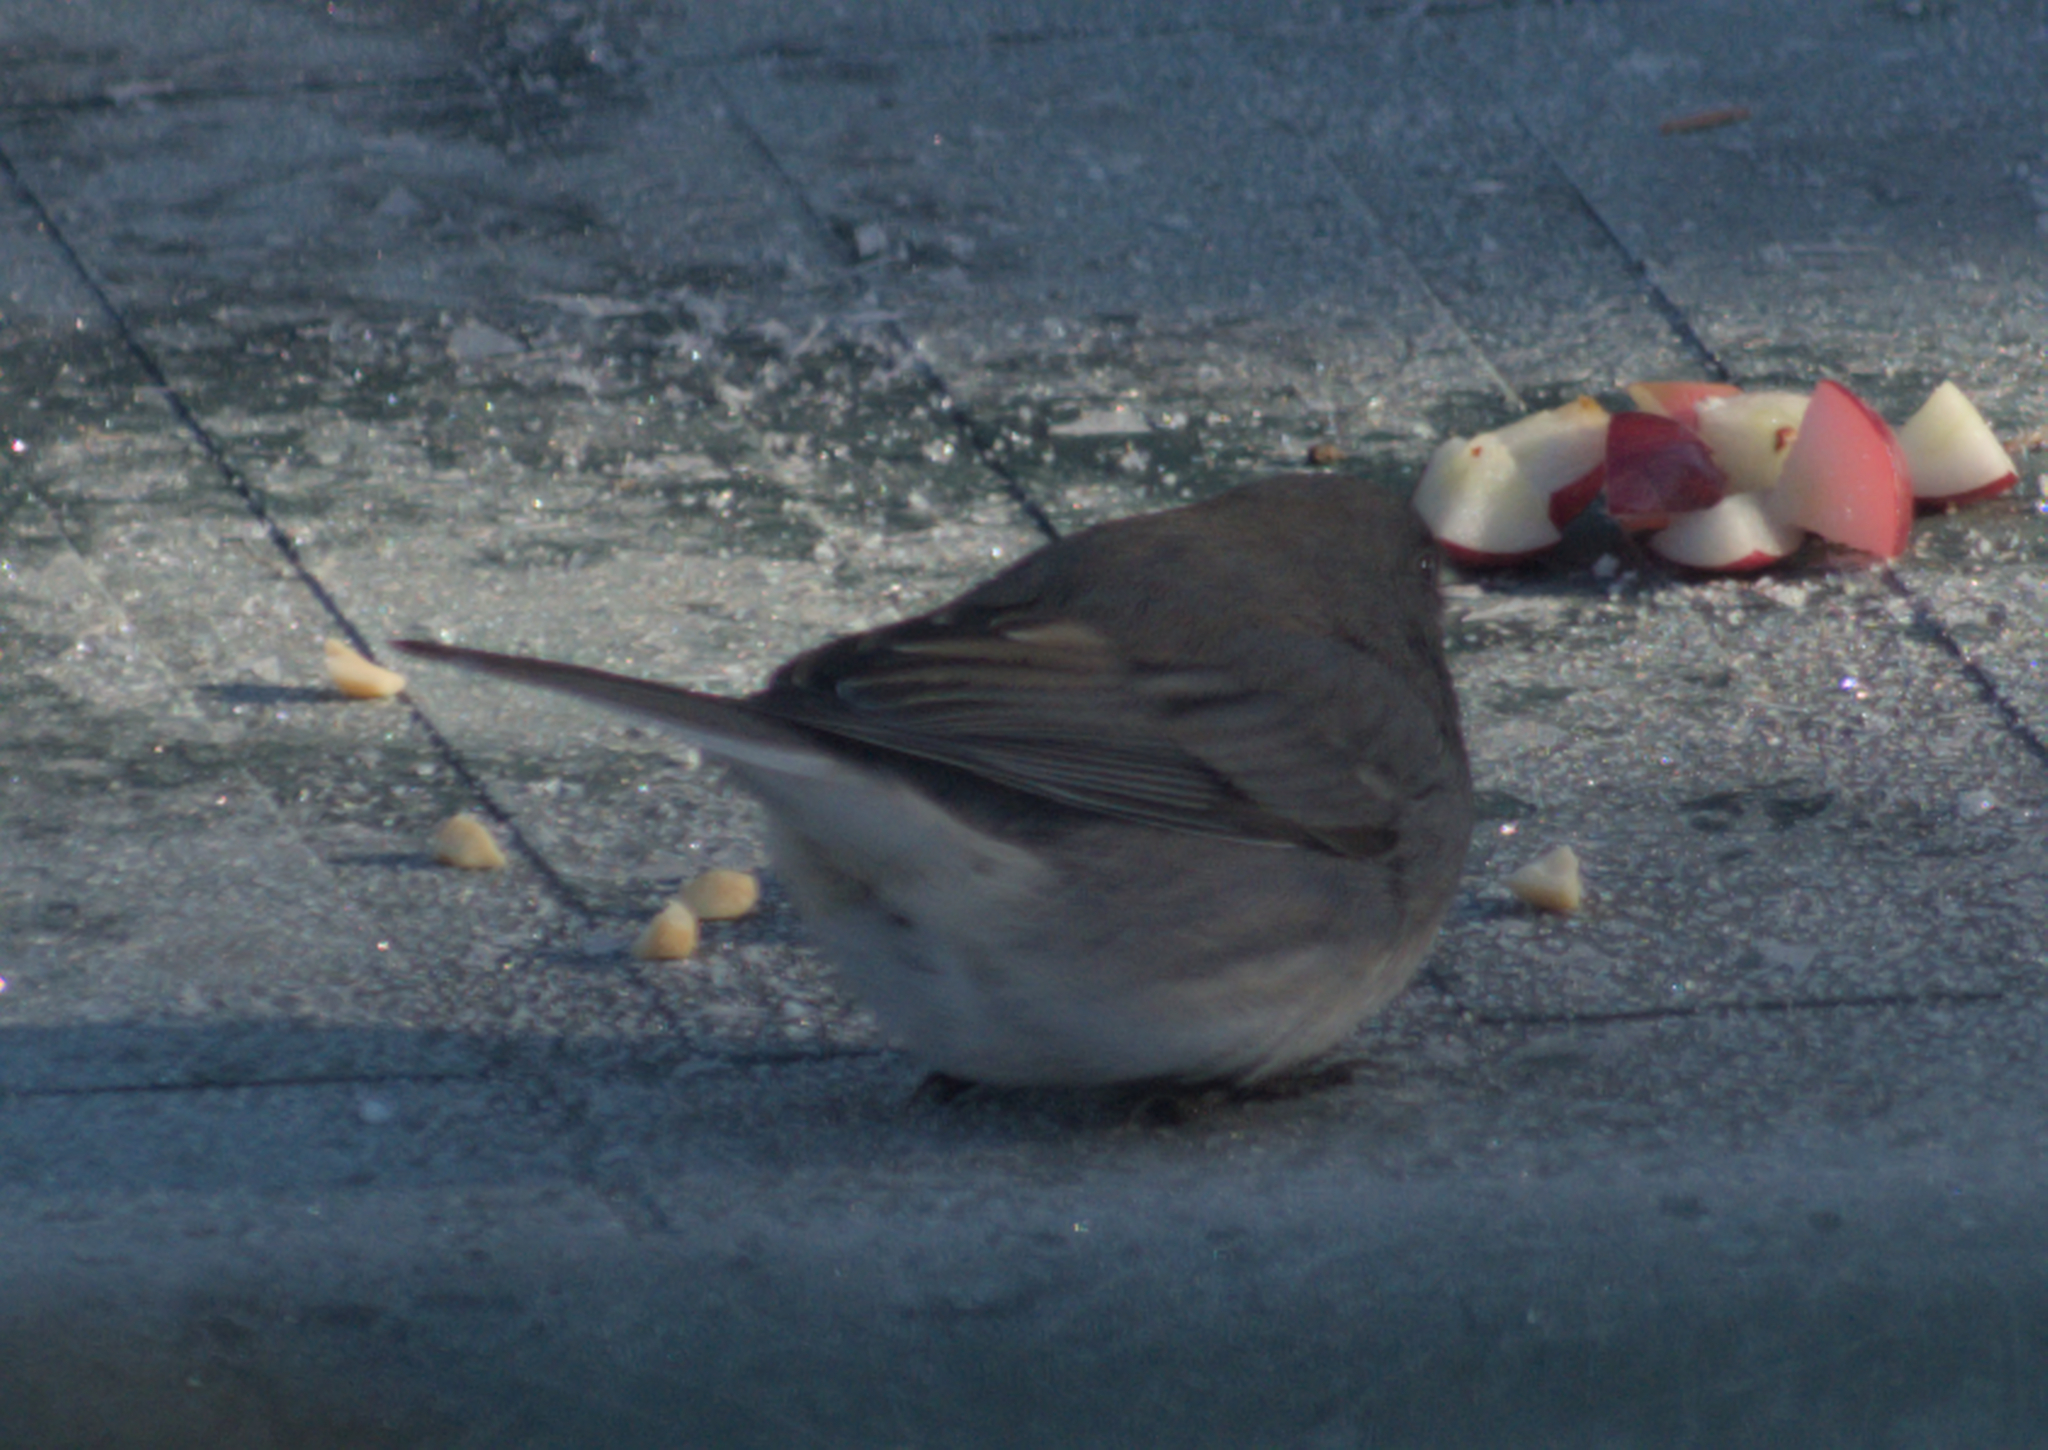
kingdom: Animalia
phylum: Chordata
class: Aves
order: Passeriformes
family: Passerellidae
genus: Junco
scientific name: Junco hyemalis
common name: Dark-eyed junco
